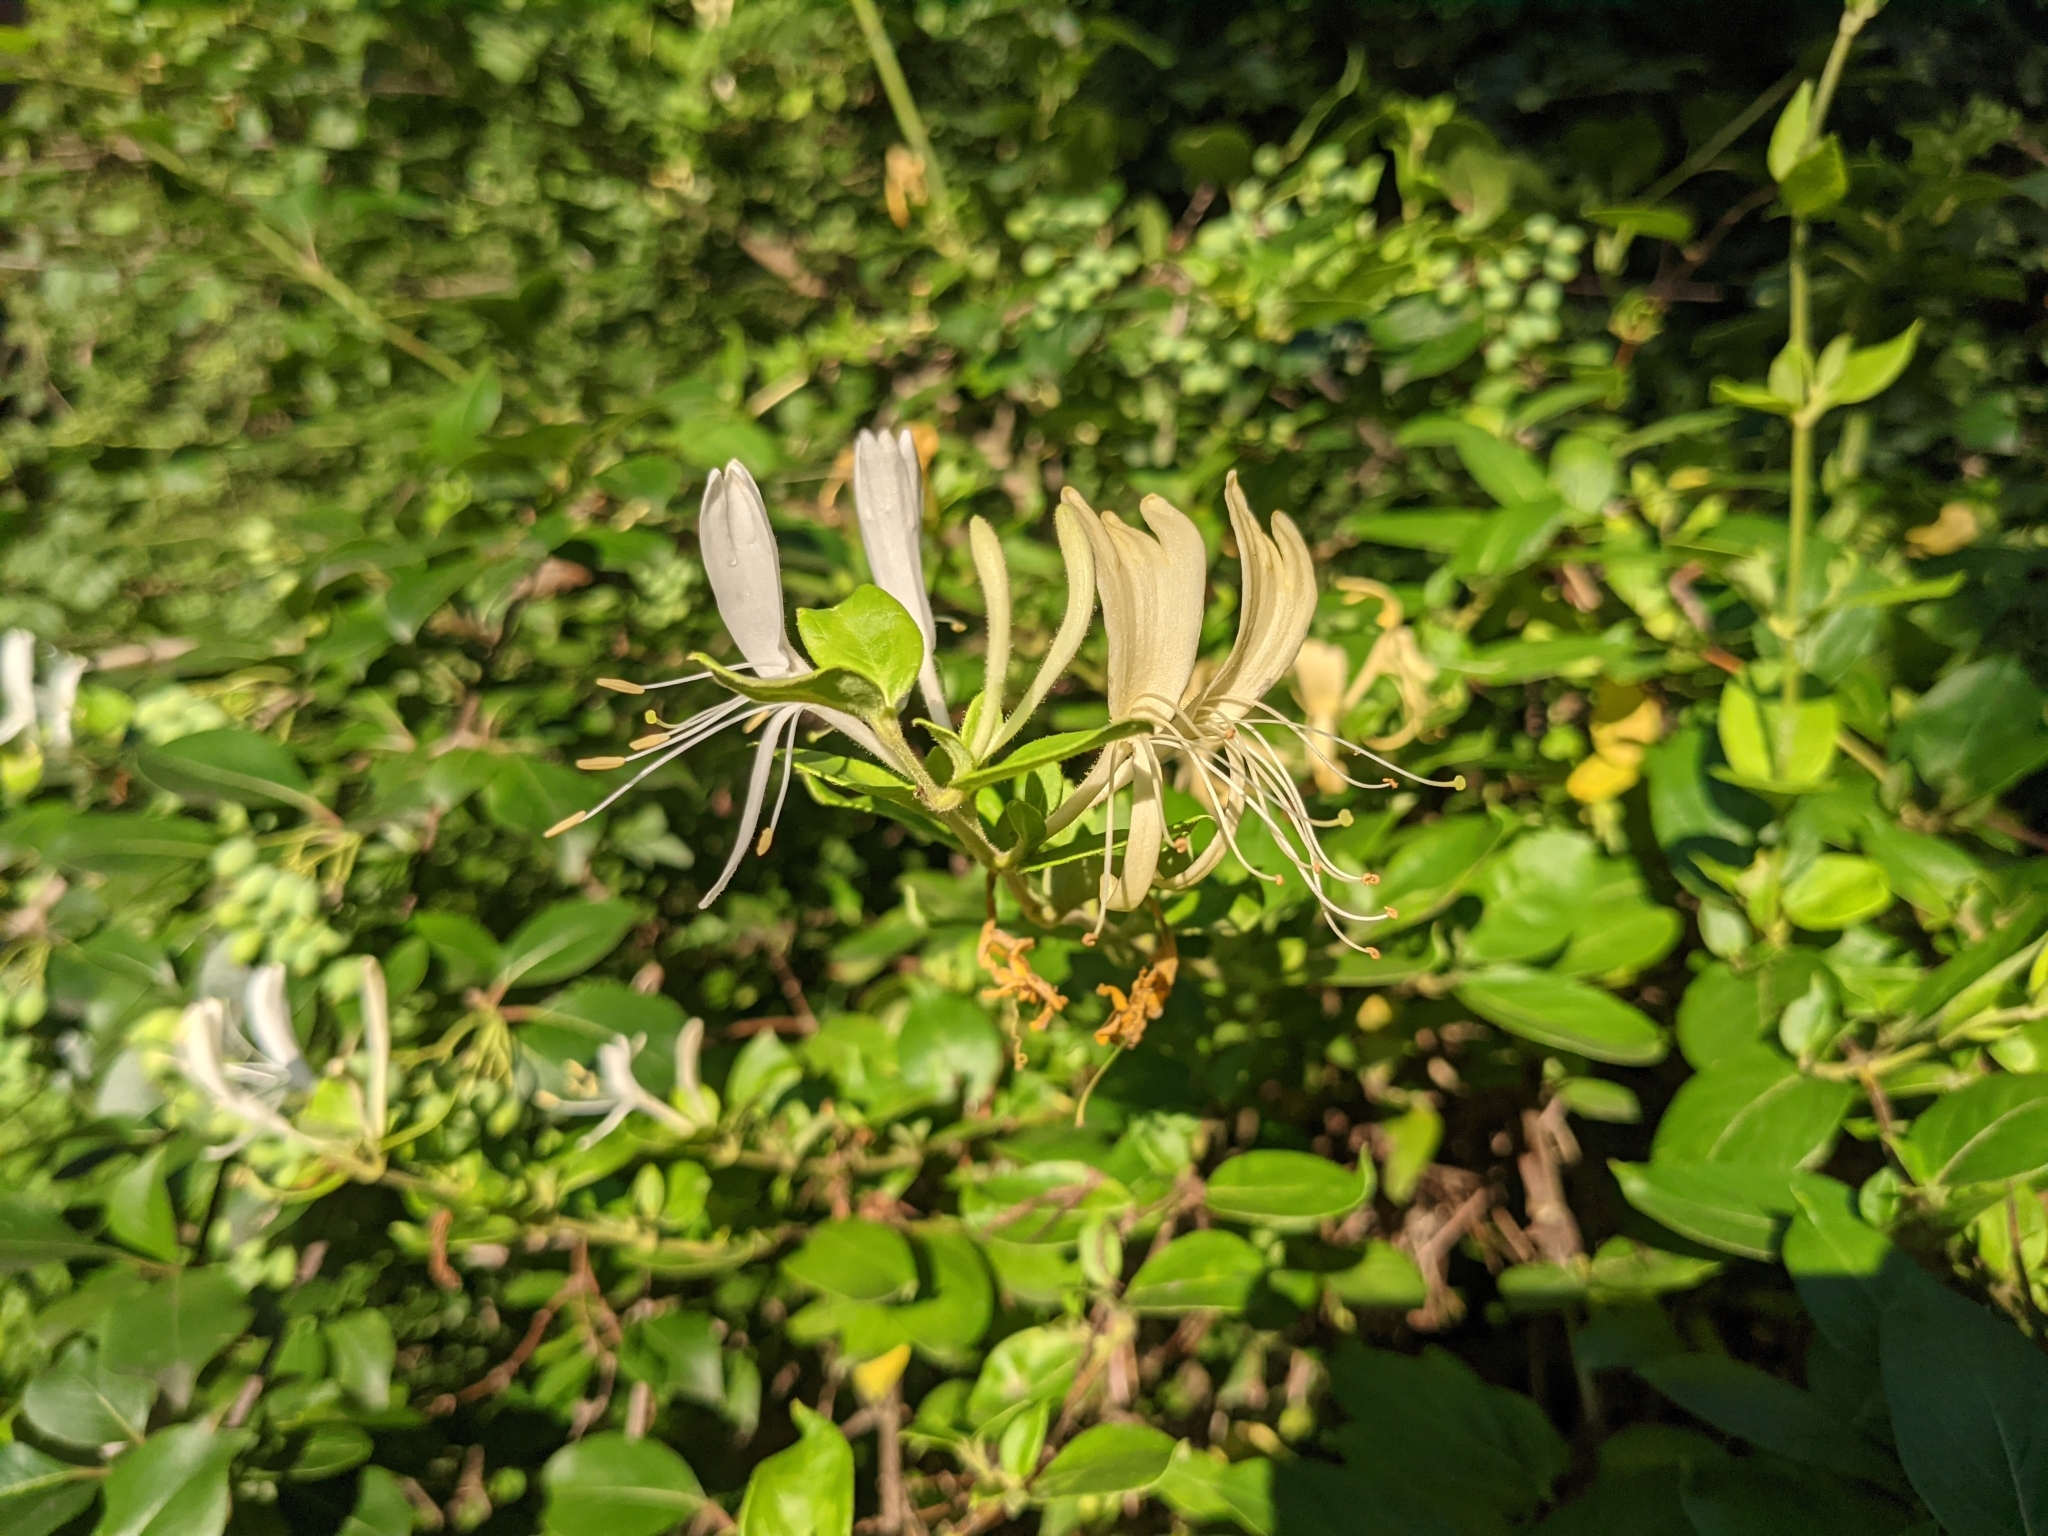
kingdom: Plantae
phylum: Tracheophyta
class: Magnoliopsida
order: Dipsacales
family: Caprifoliaceae
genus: Lonicera
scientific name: Lonicera japonica
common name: Japanese honeysuckle
